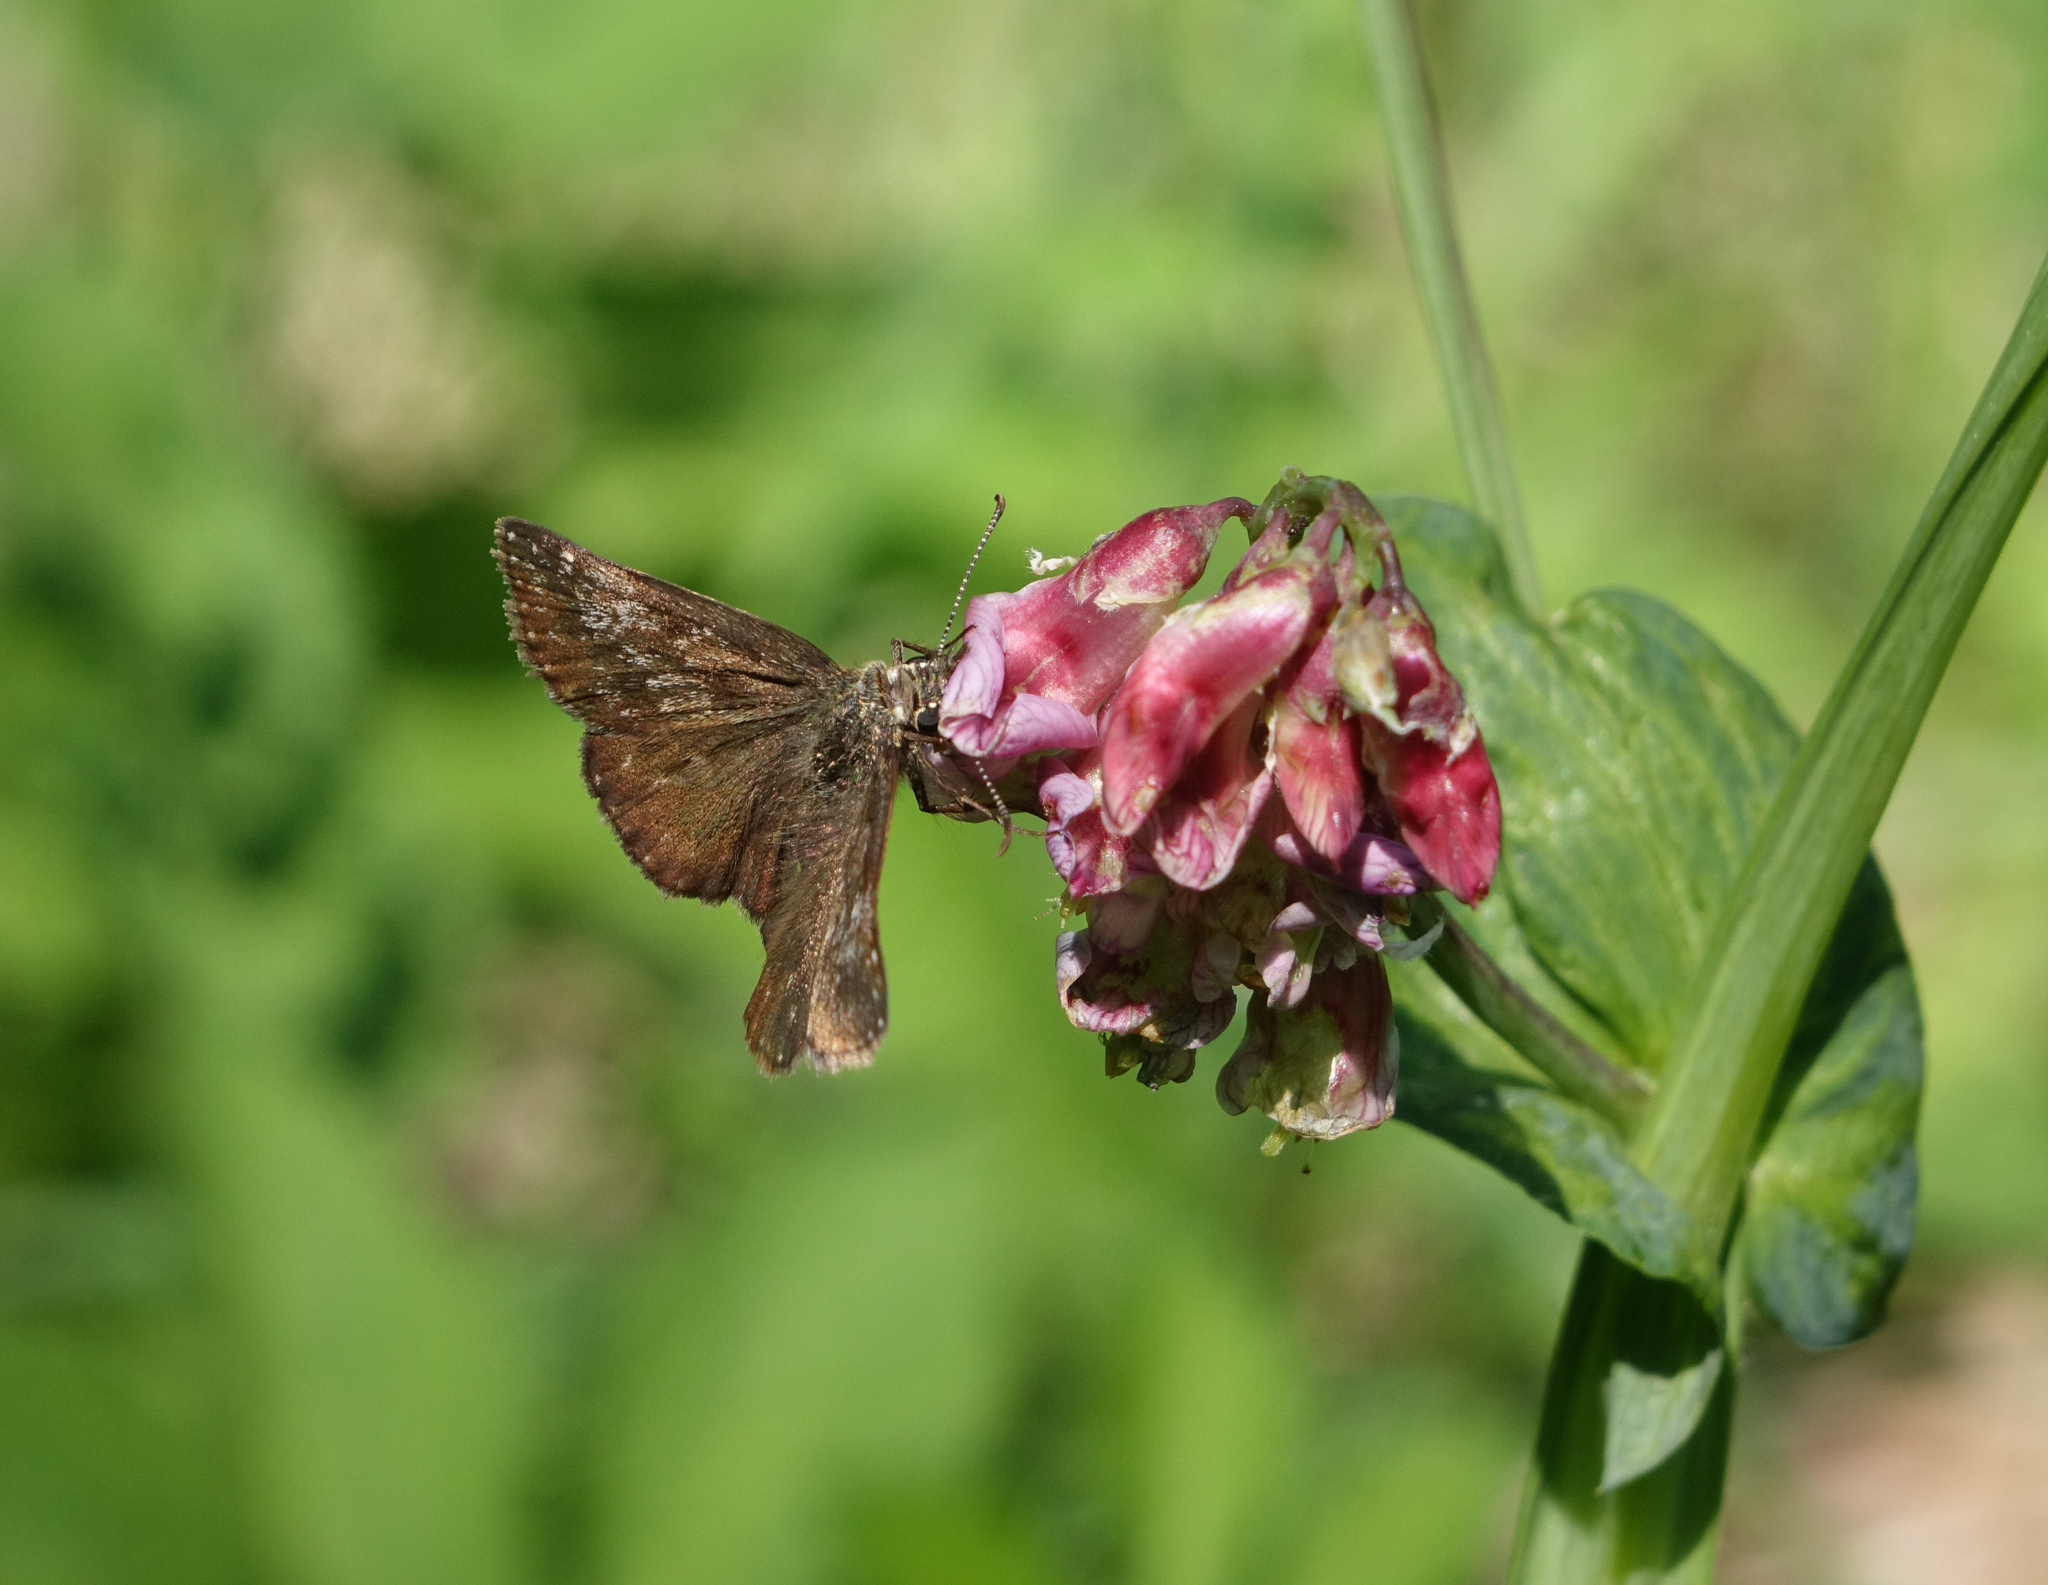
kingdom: Plantae
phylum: Tracheophyta
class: Magnoliopsida
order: Fabales
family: Fabaceae
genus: Lathyrus
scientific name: Lathyrus pisiformis
